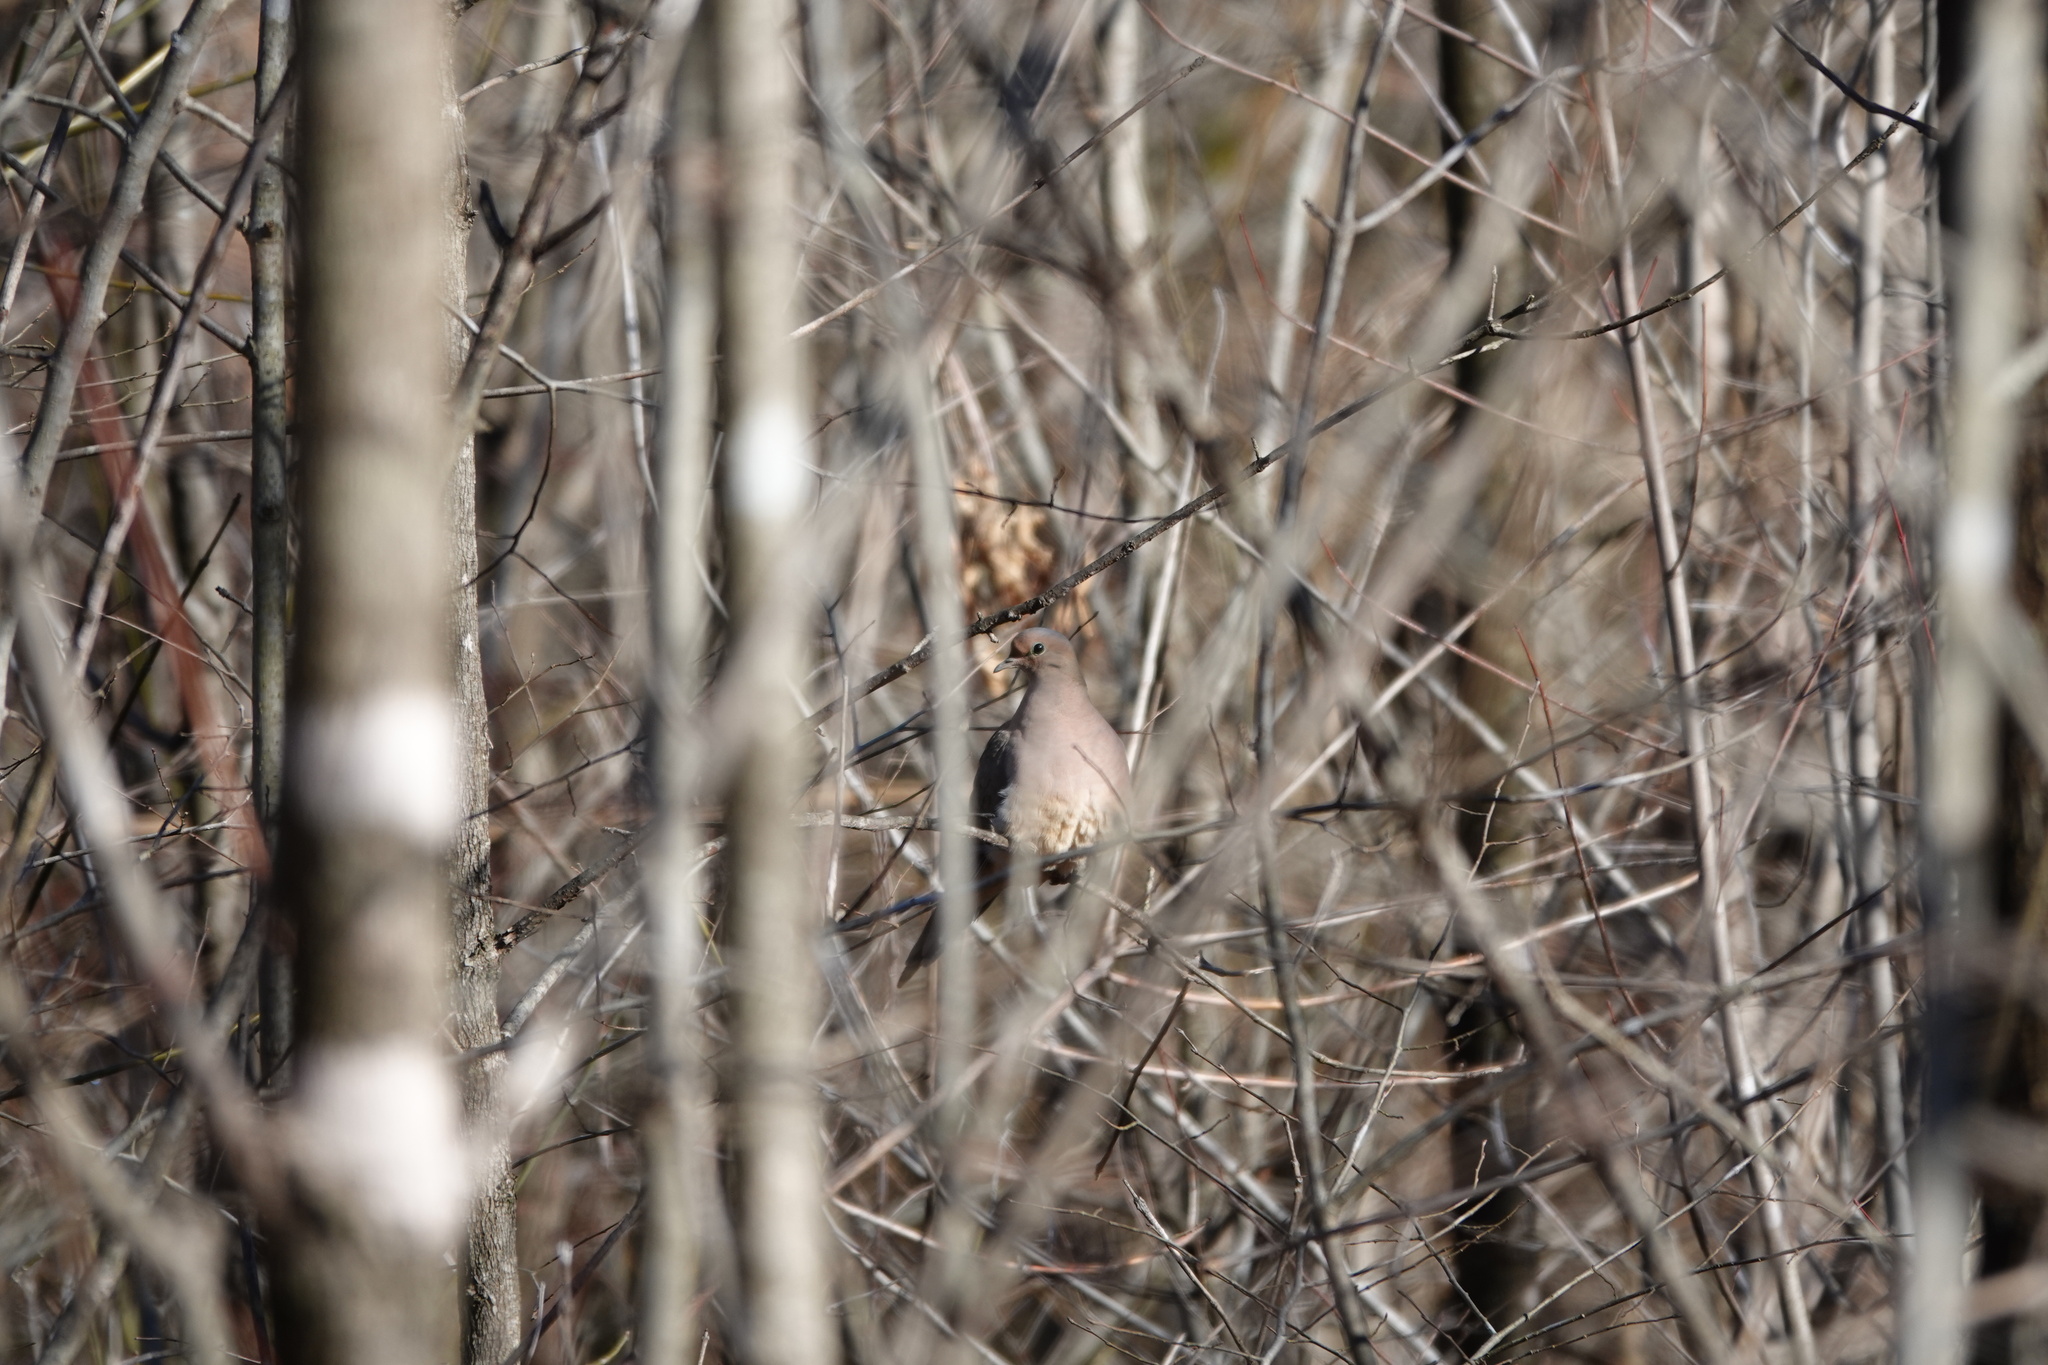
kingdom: Animalia
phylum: Chordata
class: Aves
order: Columbiformes
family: Columbidae
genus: Zenaida
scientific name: Zenaida macroura
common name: Mourning dove
